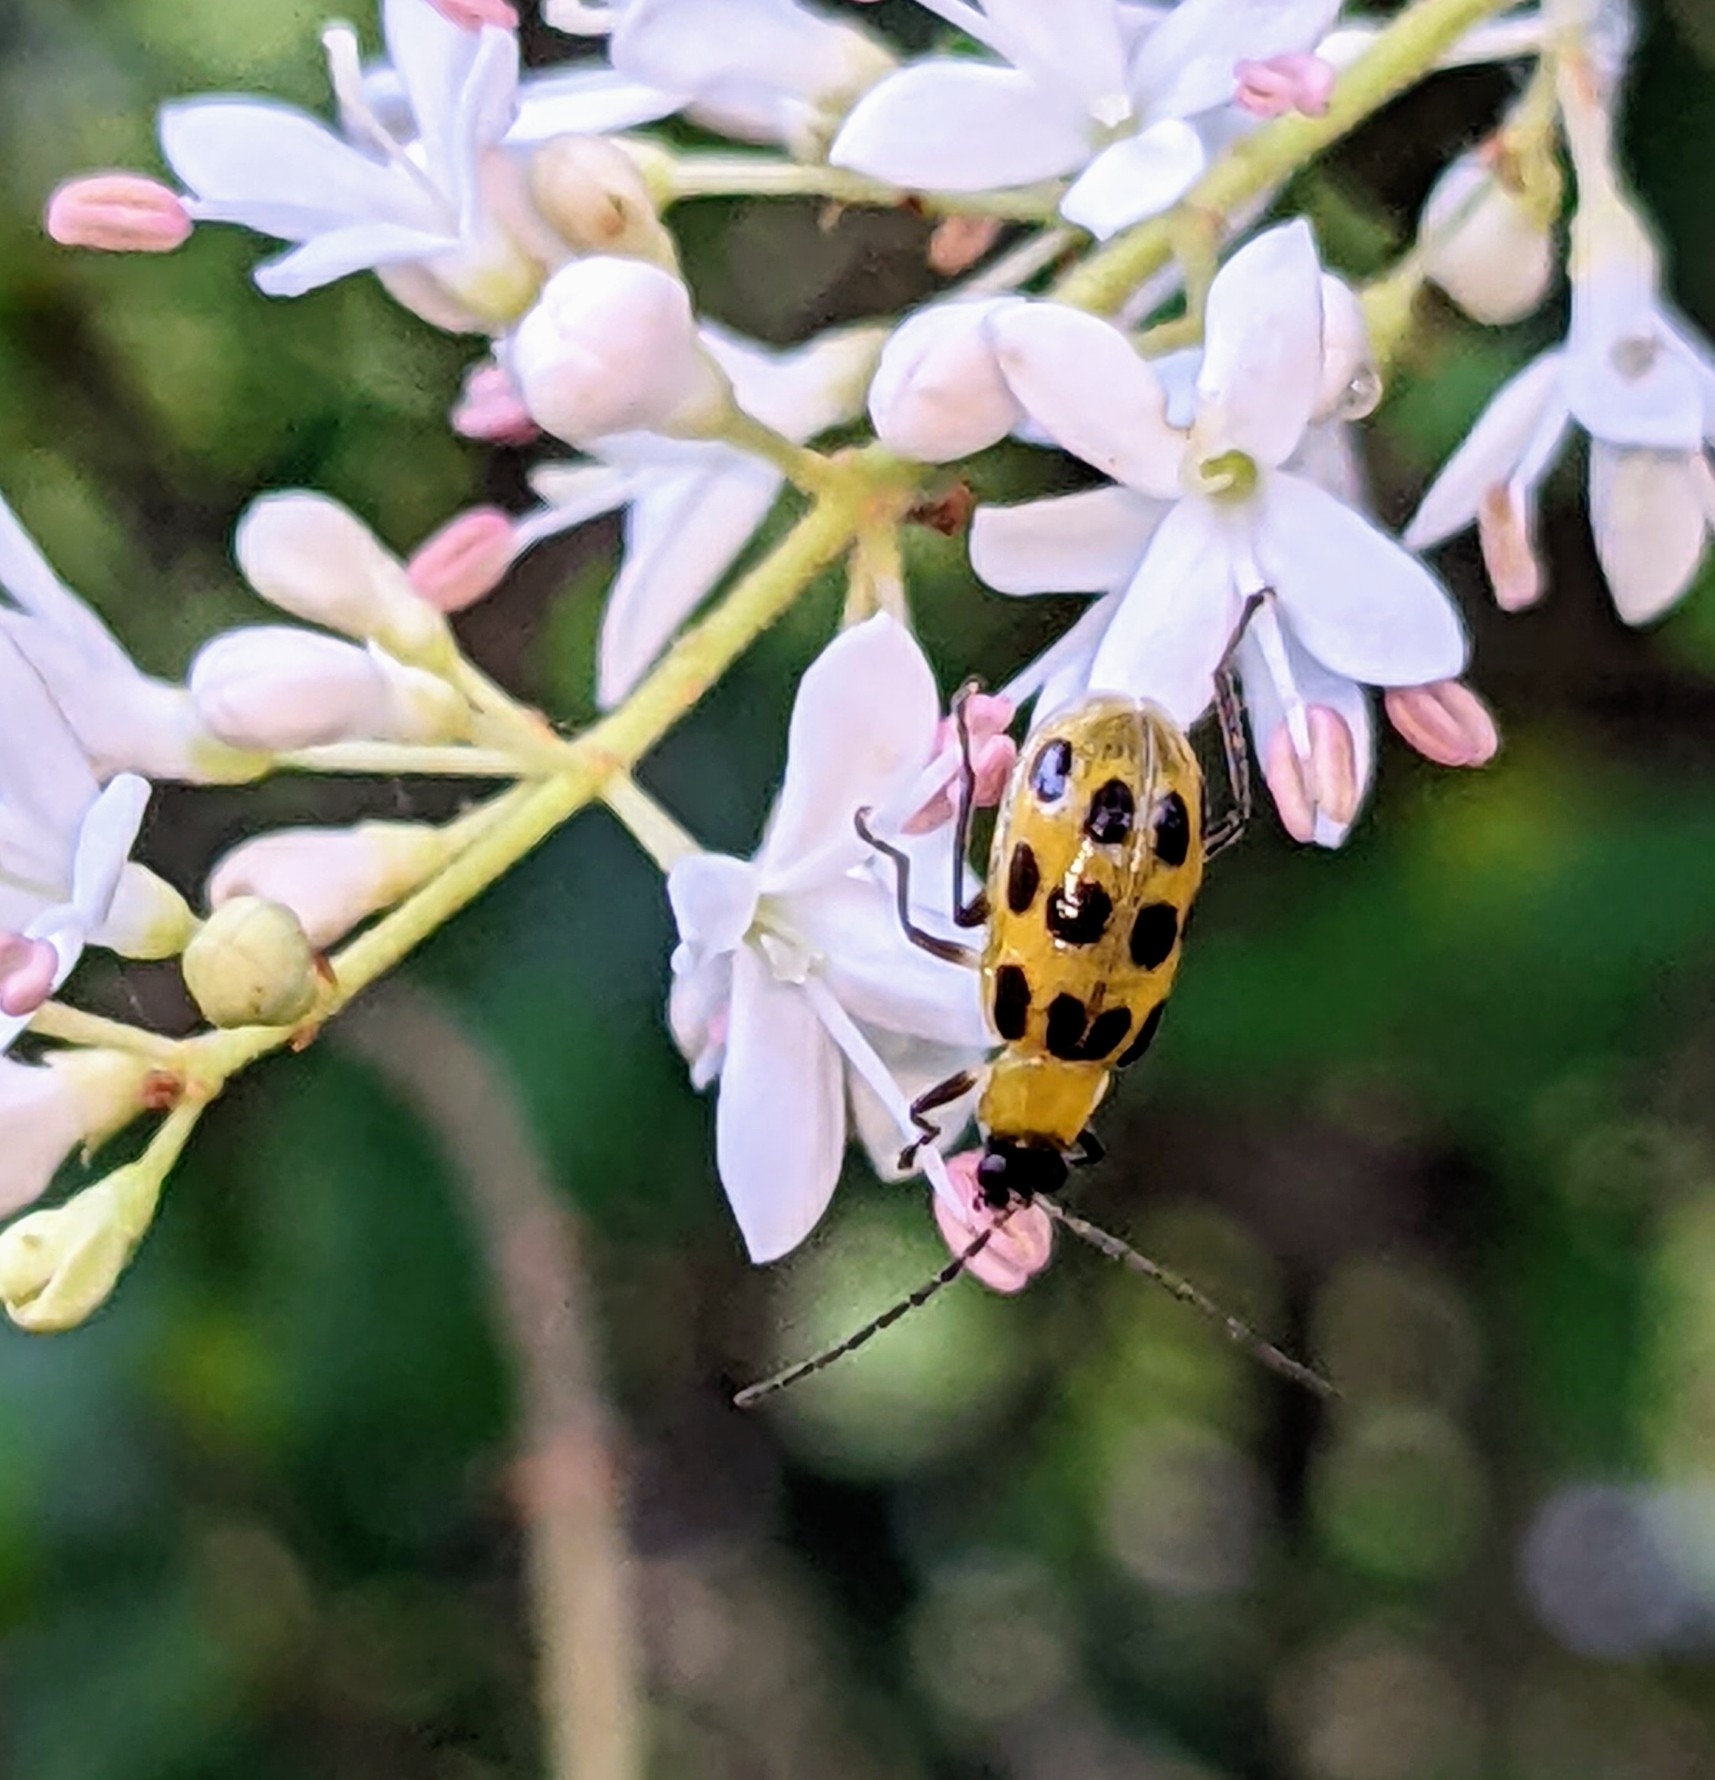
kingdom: Animalia
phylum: Arthropoda
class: Insecta
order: Coleoptera
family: Chrysomelidae
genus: Diabrotica
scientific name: Diabrotica undecimpunctata
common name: Spotted cucumber beetle
